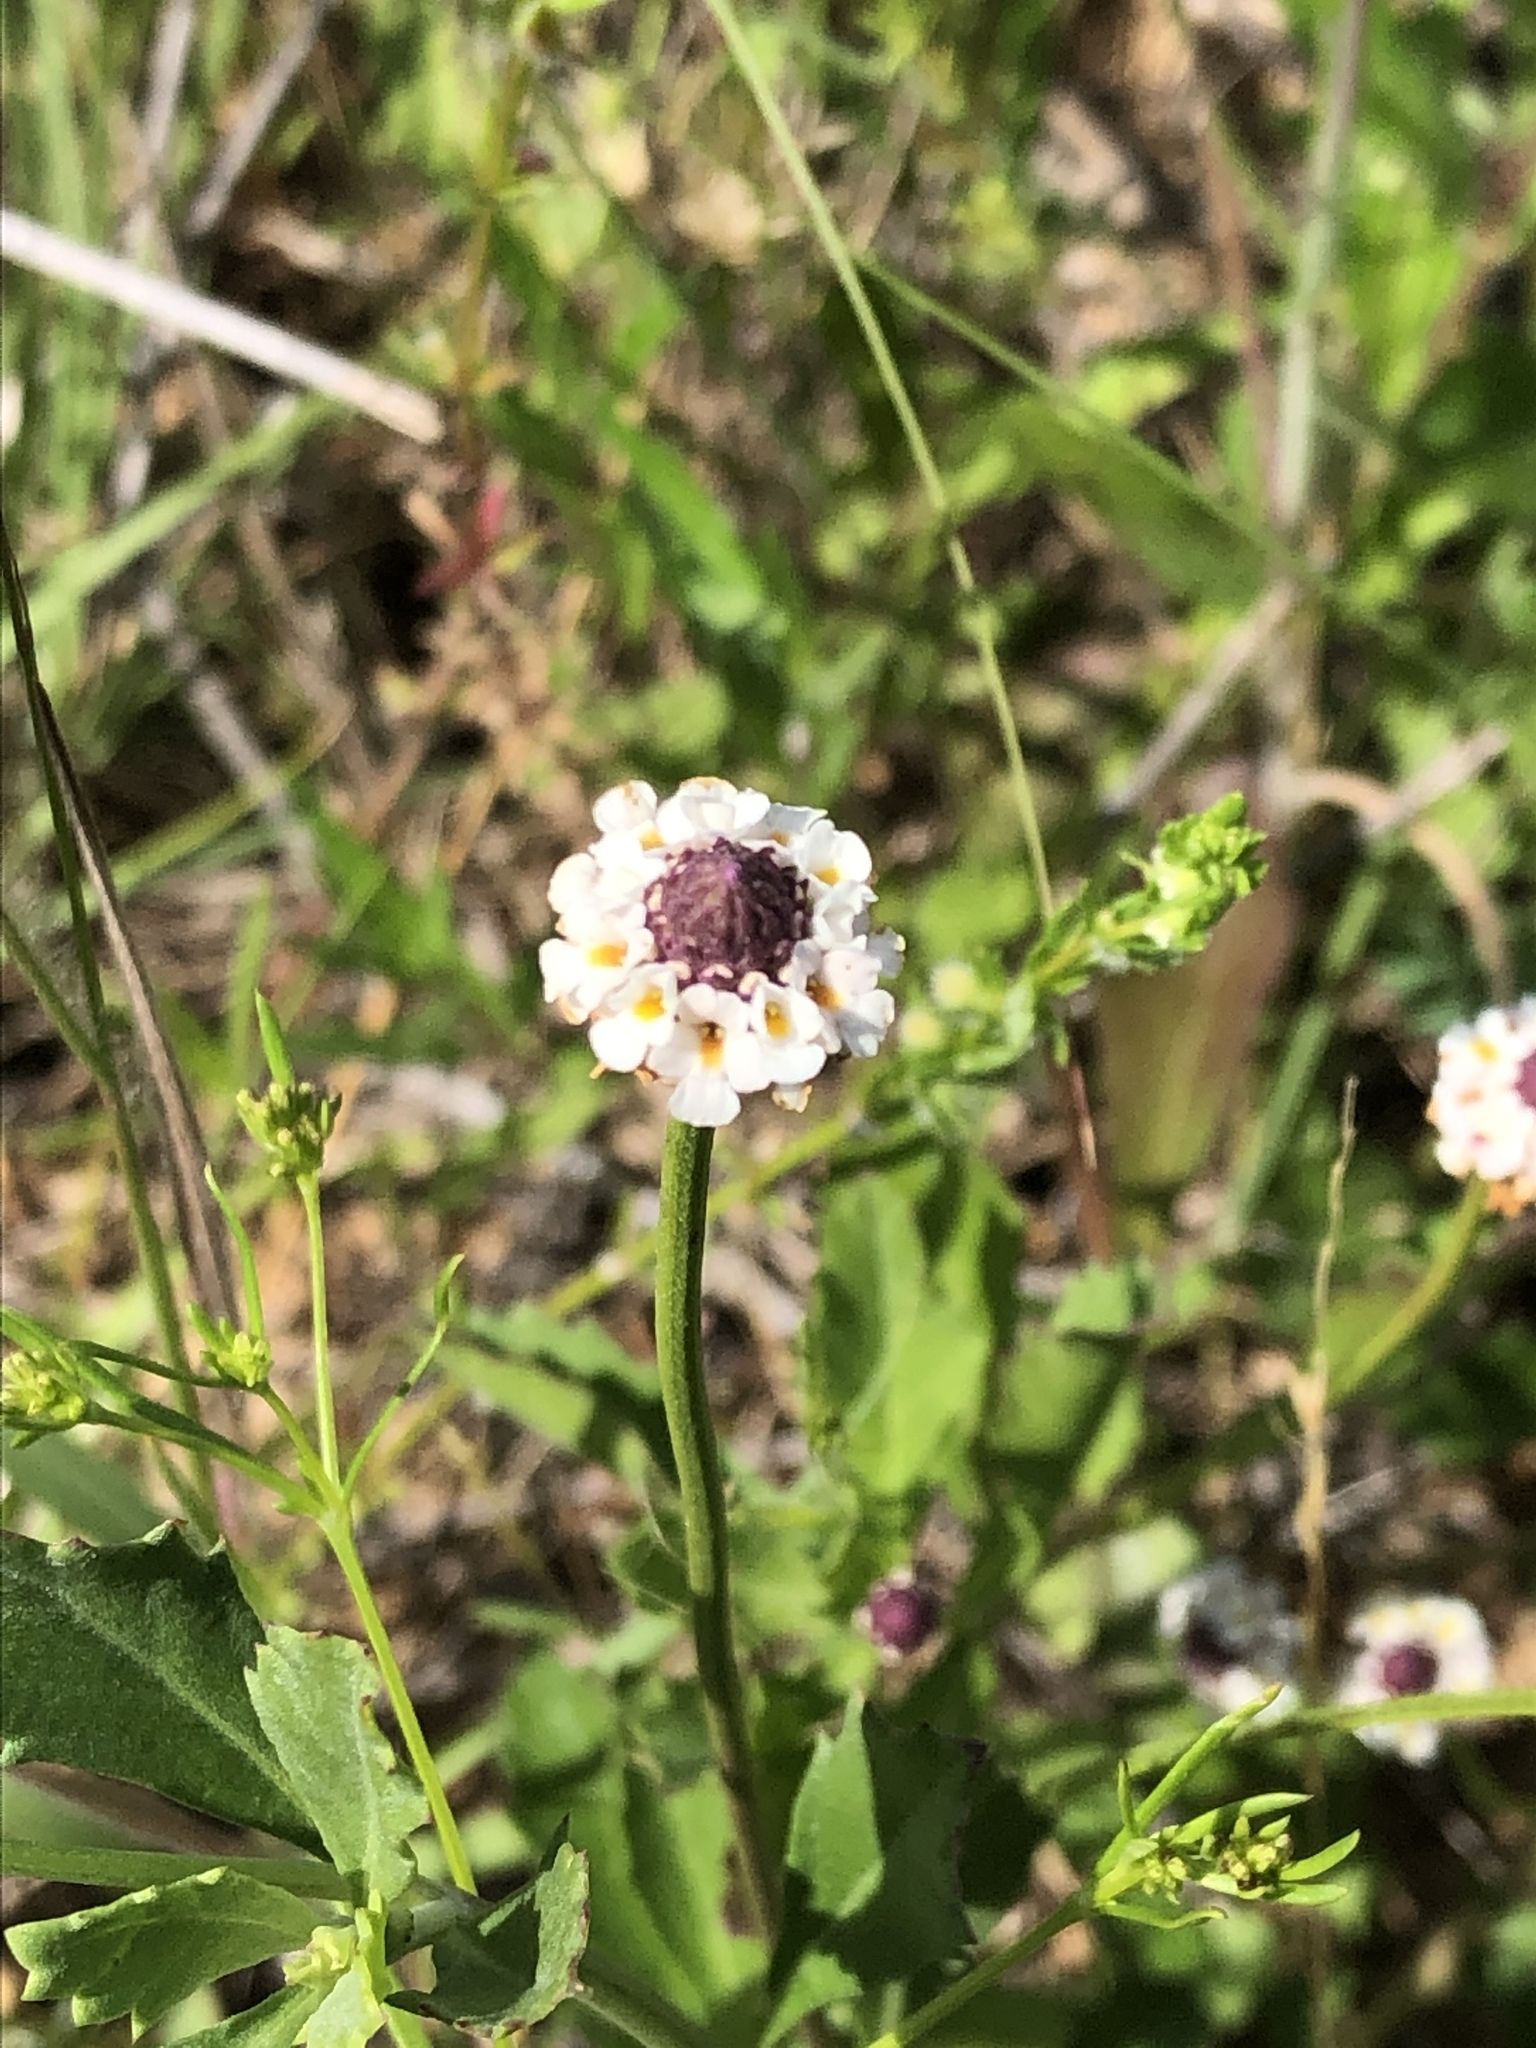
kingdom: Plantae
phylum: Tracheophyta
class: Magnoliopsida
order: Lamiales
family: Verbenaceae
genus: Phyla
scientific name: Phyla nodiflora
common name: Frogfruit
